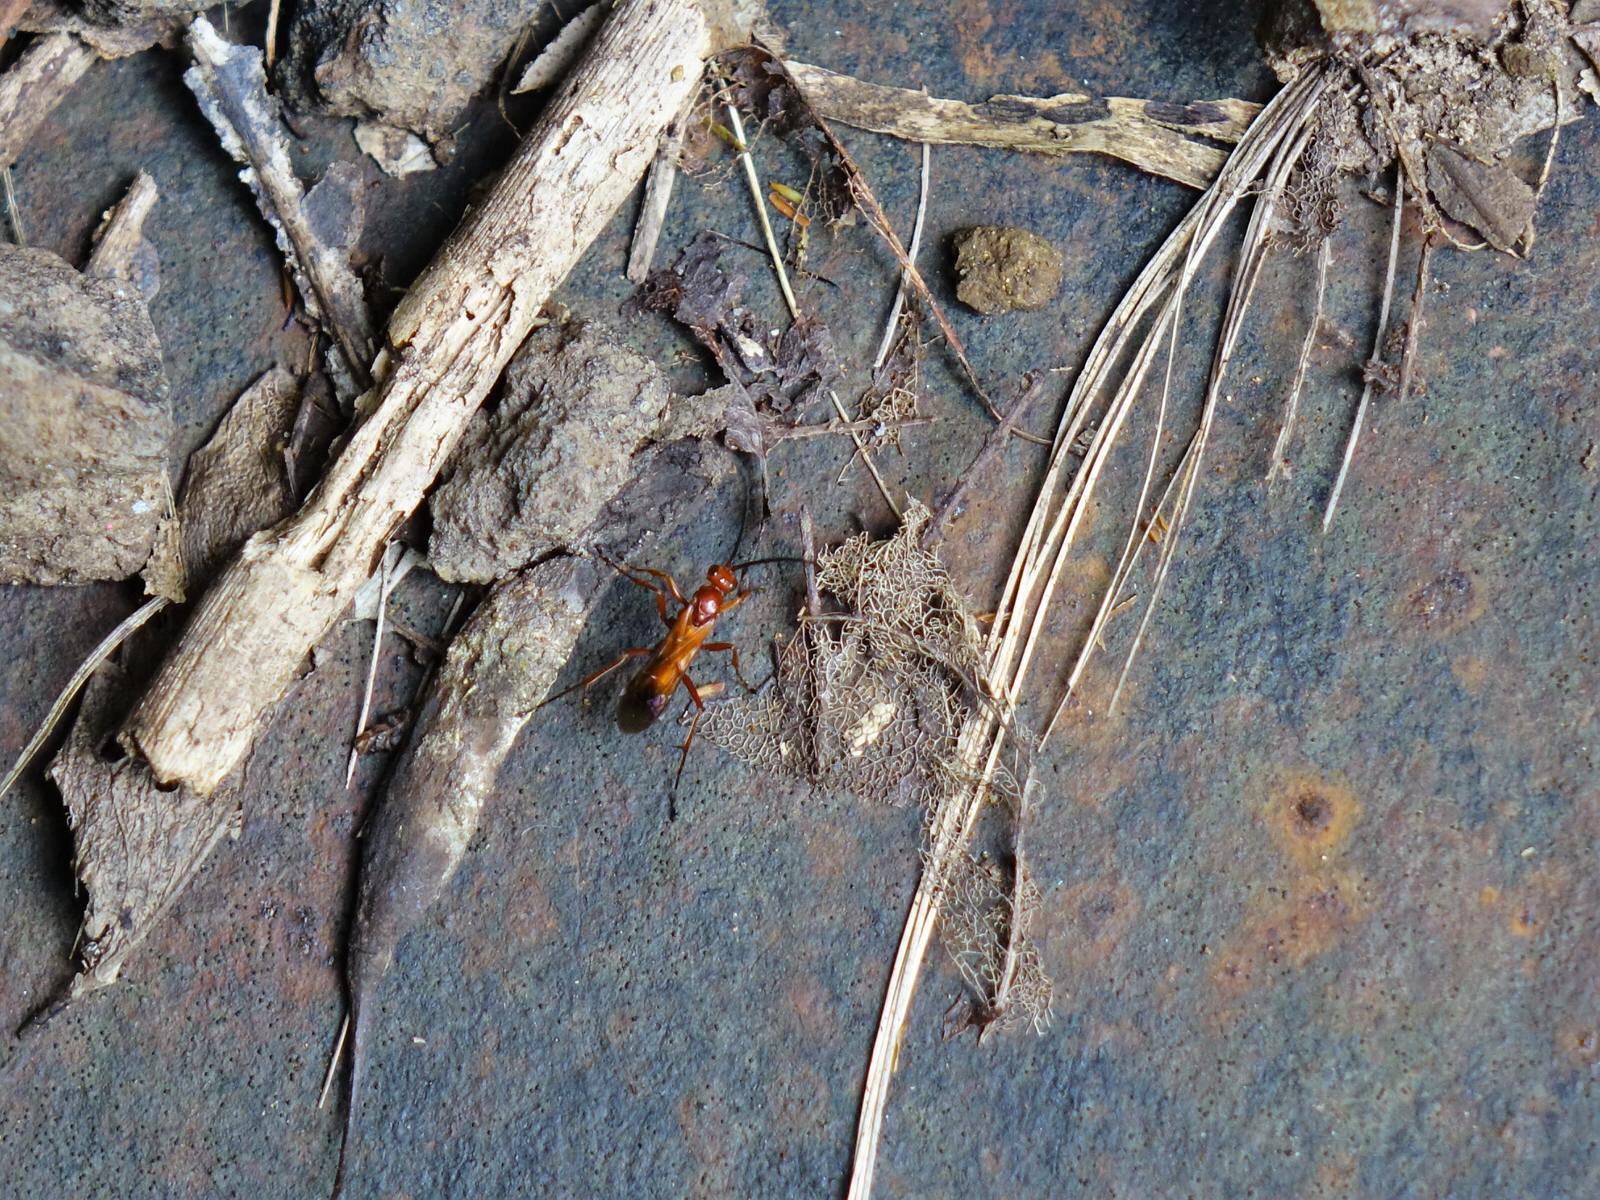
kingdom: Animalia
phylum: Arthropoda
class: Insecta
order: Hymenoptera
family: Pompilidae
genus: Sphictostethus
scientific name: Sphictostethus
